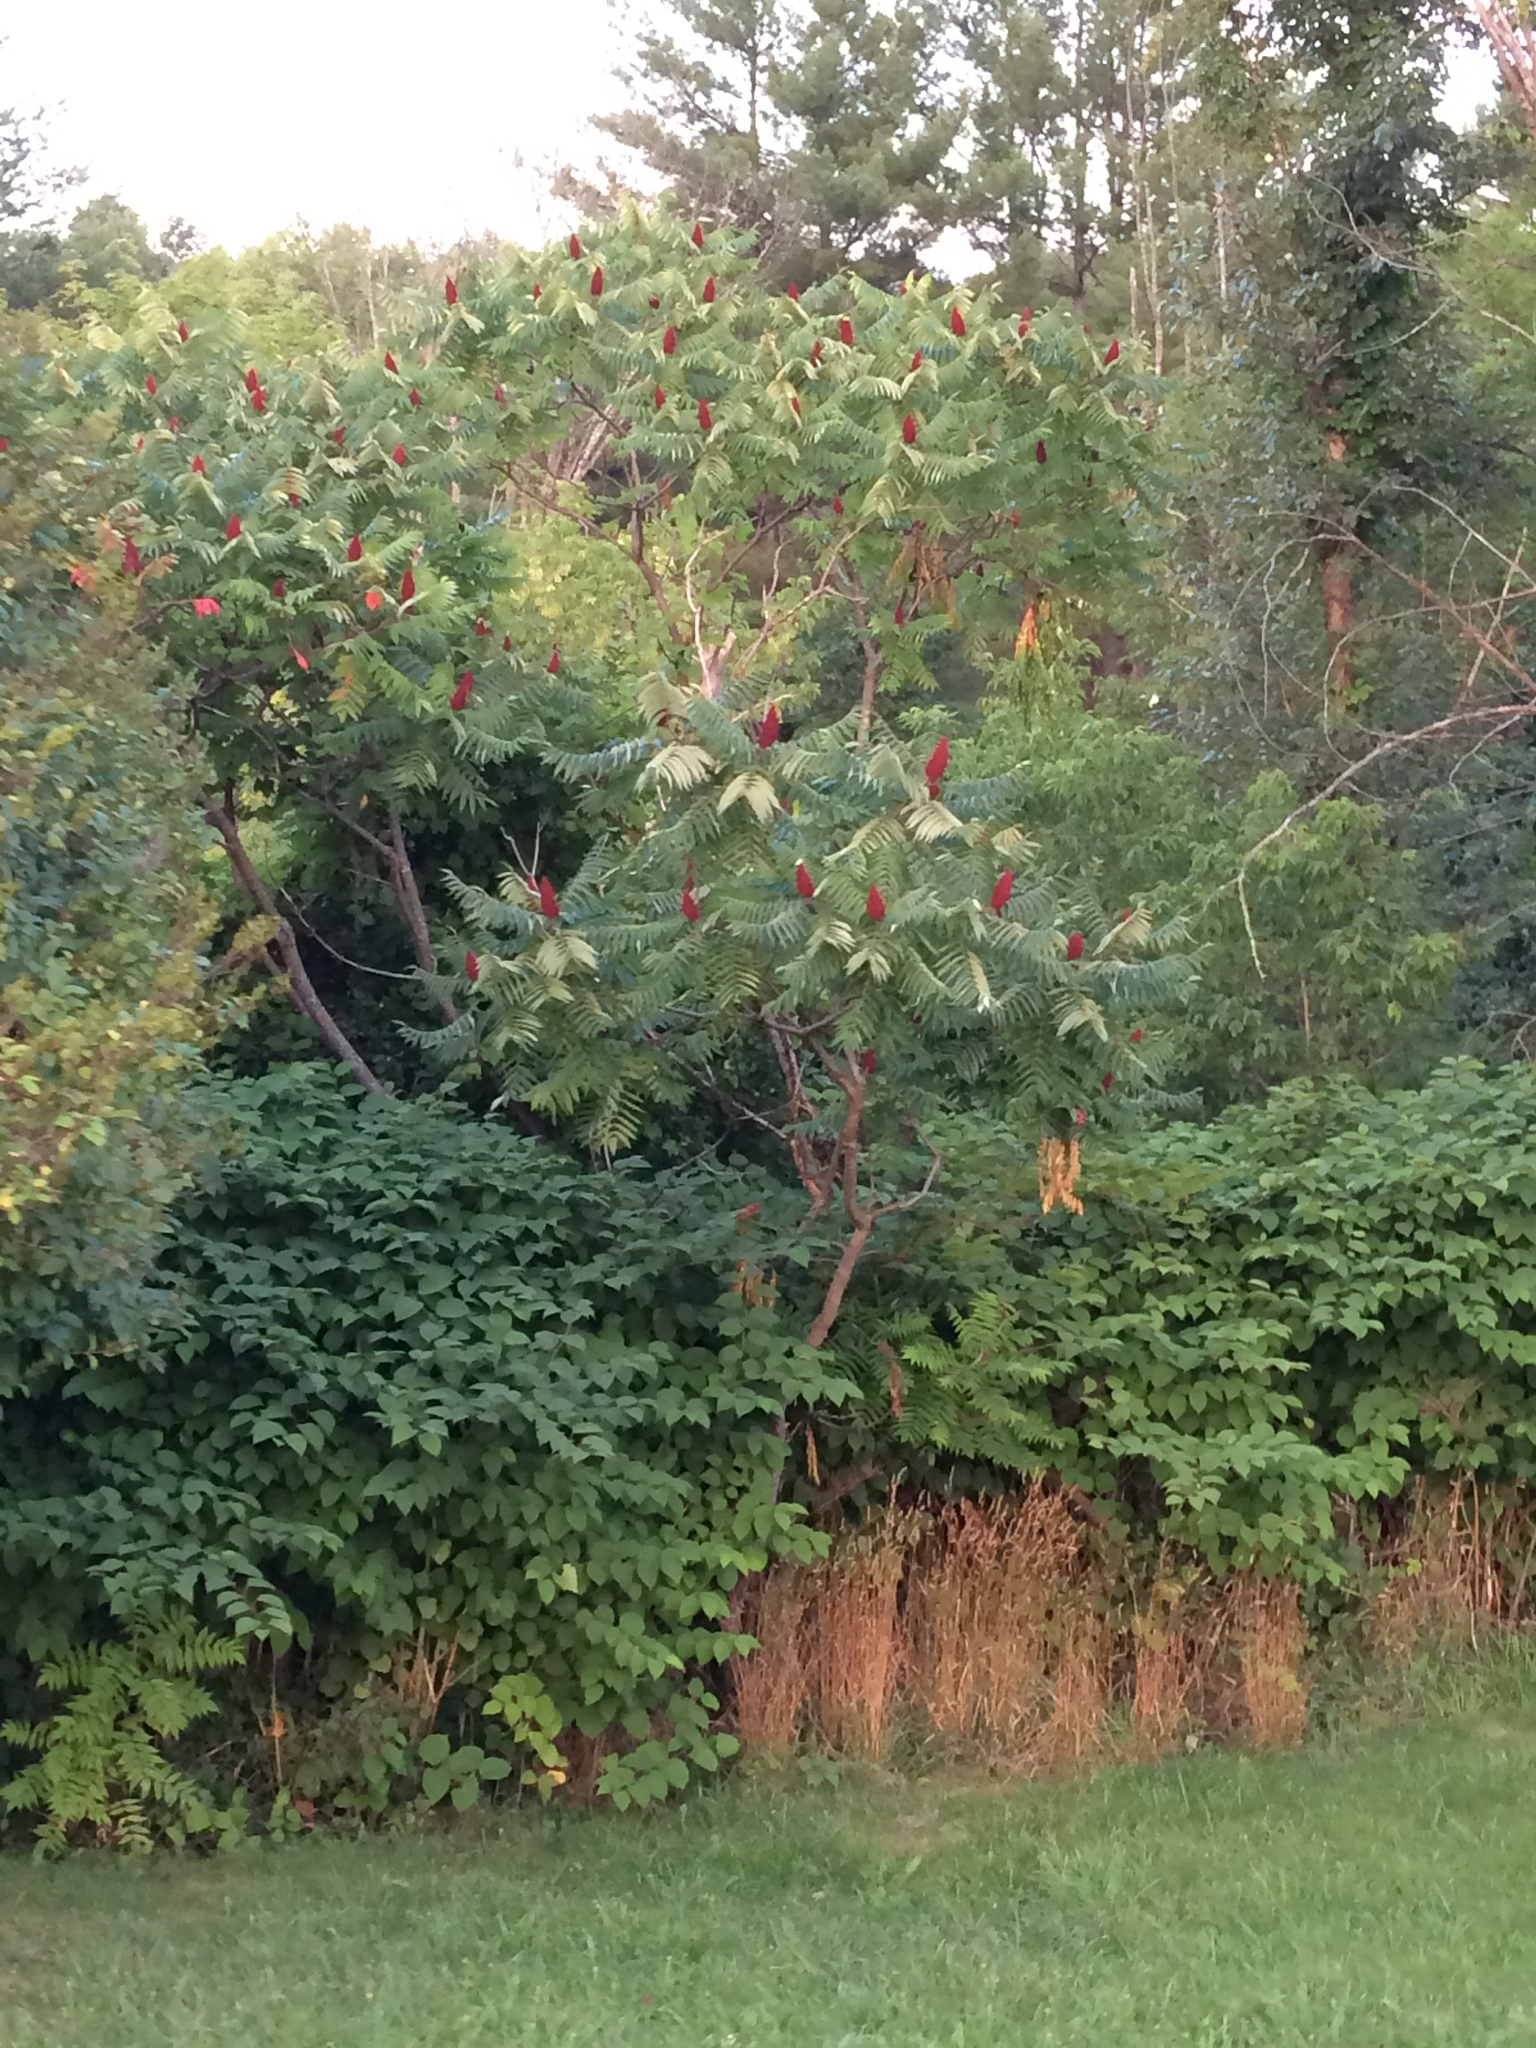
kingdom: Plantae
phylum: Tracheophyta
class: Magnoliopsida
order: Sapindales
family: Anacardiaceae
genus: Rhus
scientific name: Rhus typhina
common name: Staghorn sumac
